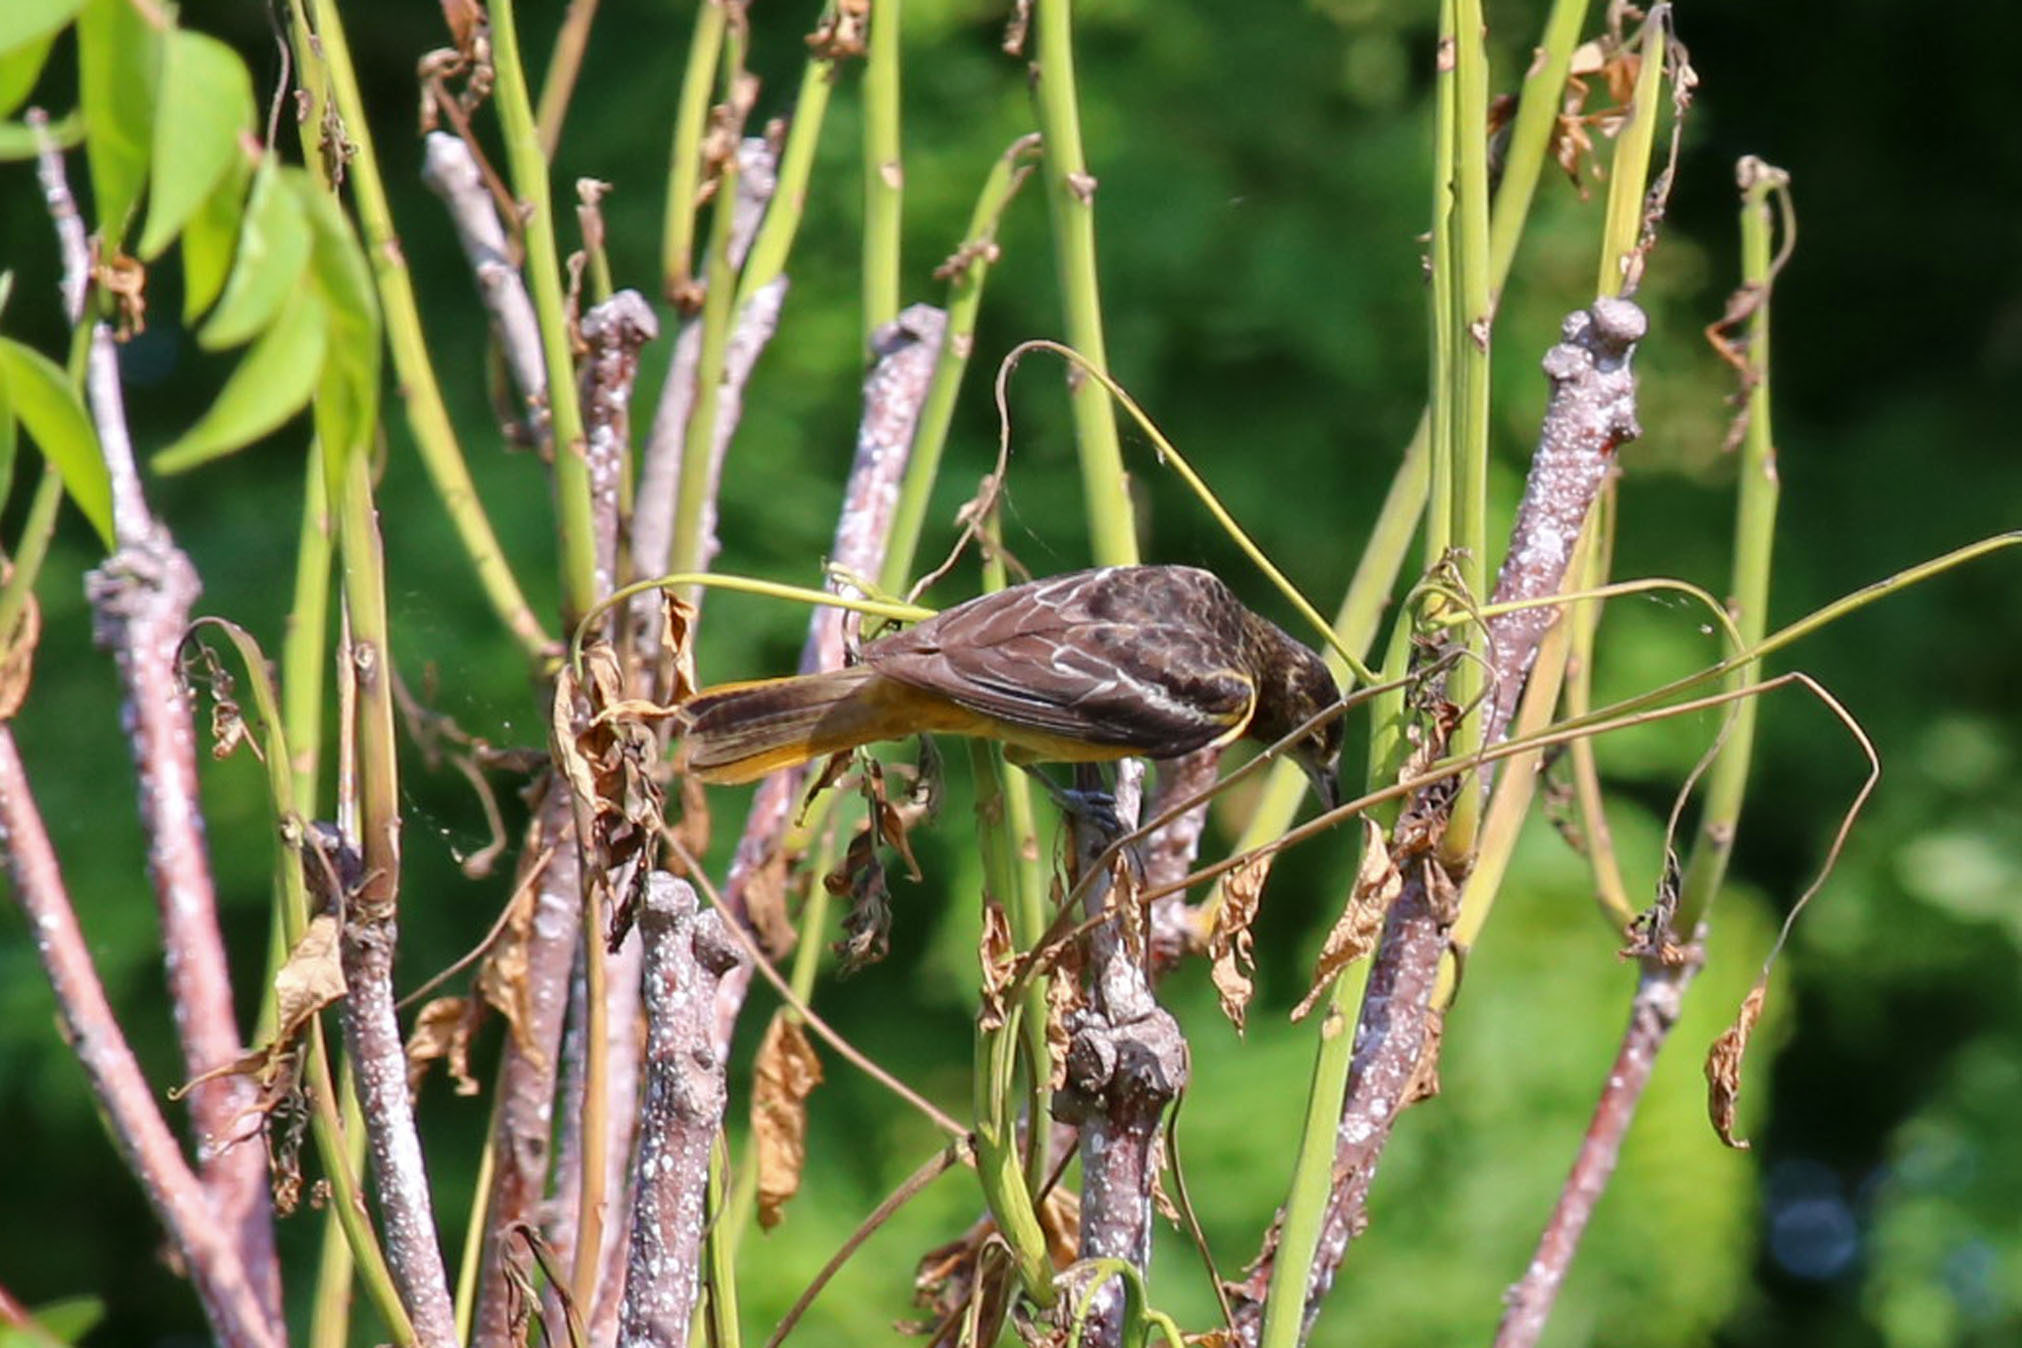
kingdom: Animalia
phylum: Chordata
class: Aves
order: Passeriformes
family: Icteridae
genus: Icterus
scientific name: Icterus galbula
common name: Baltimore oriole
